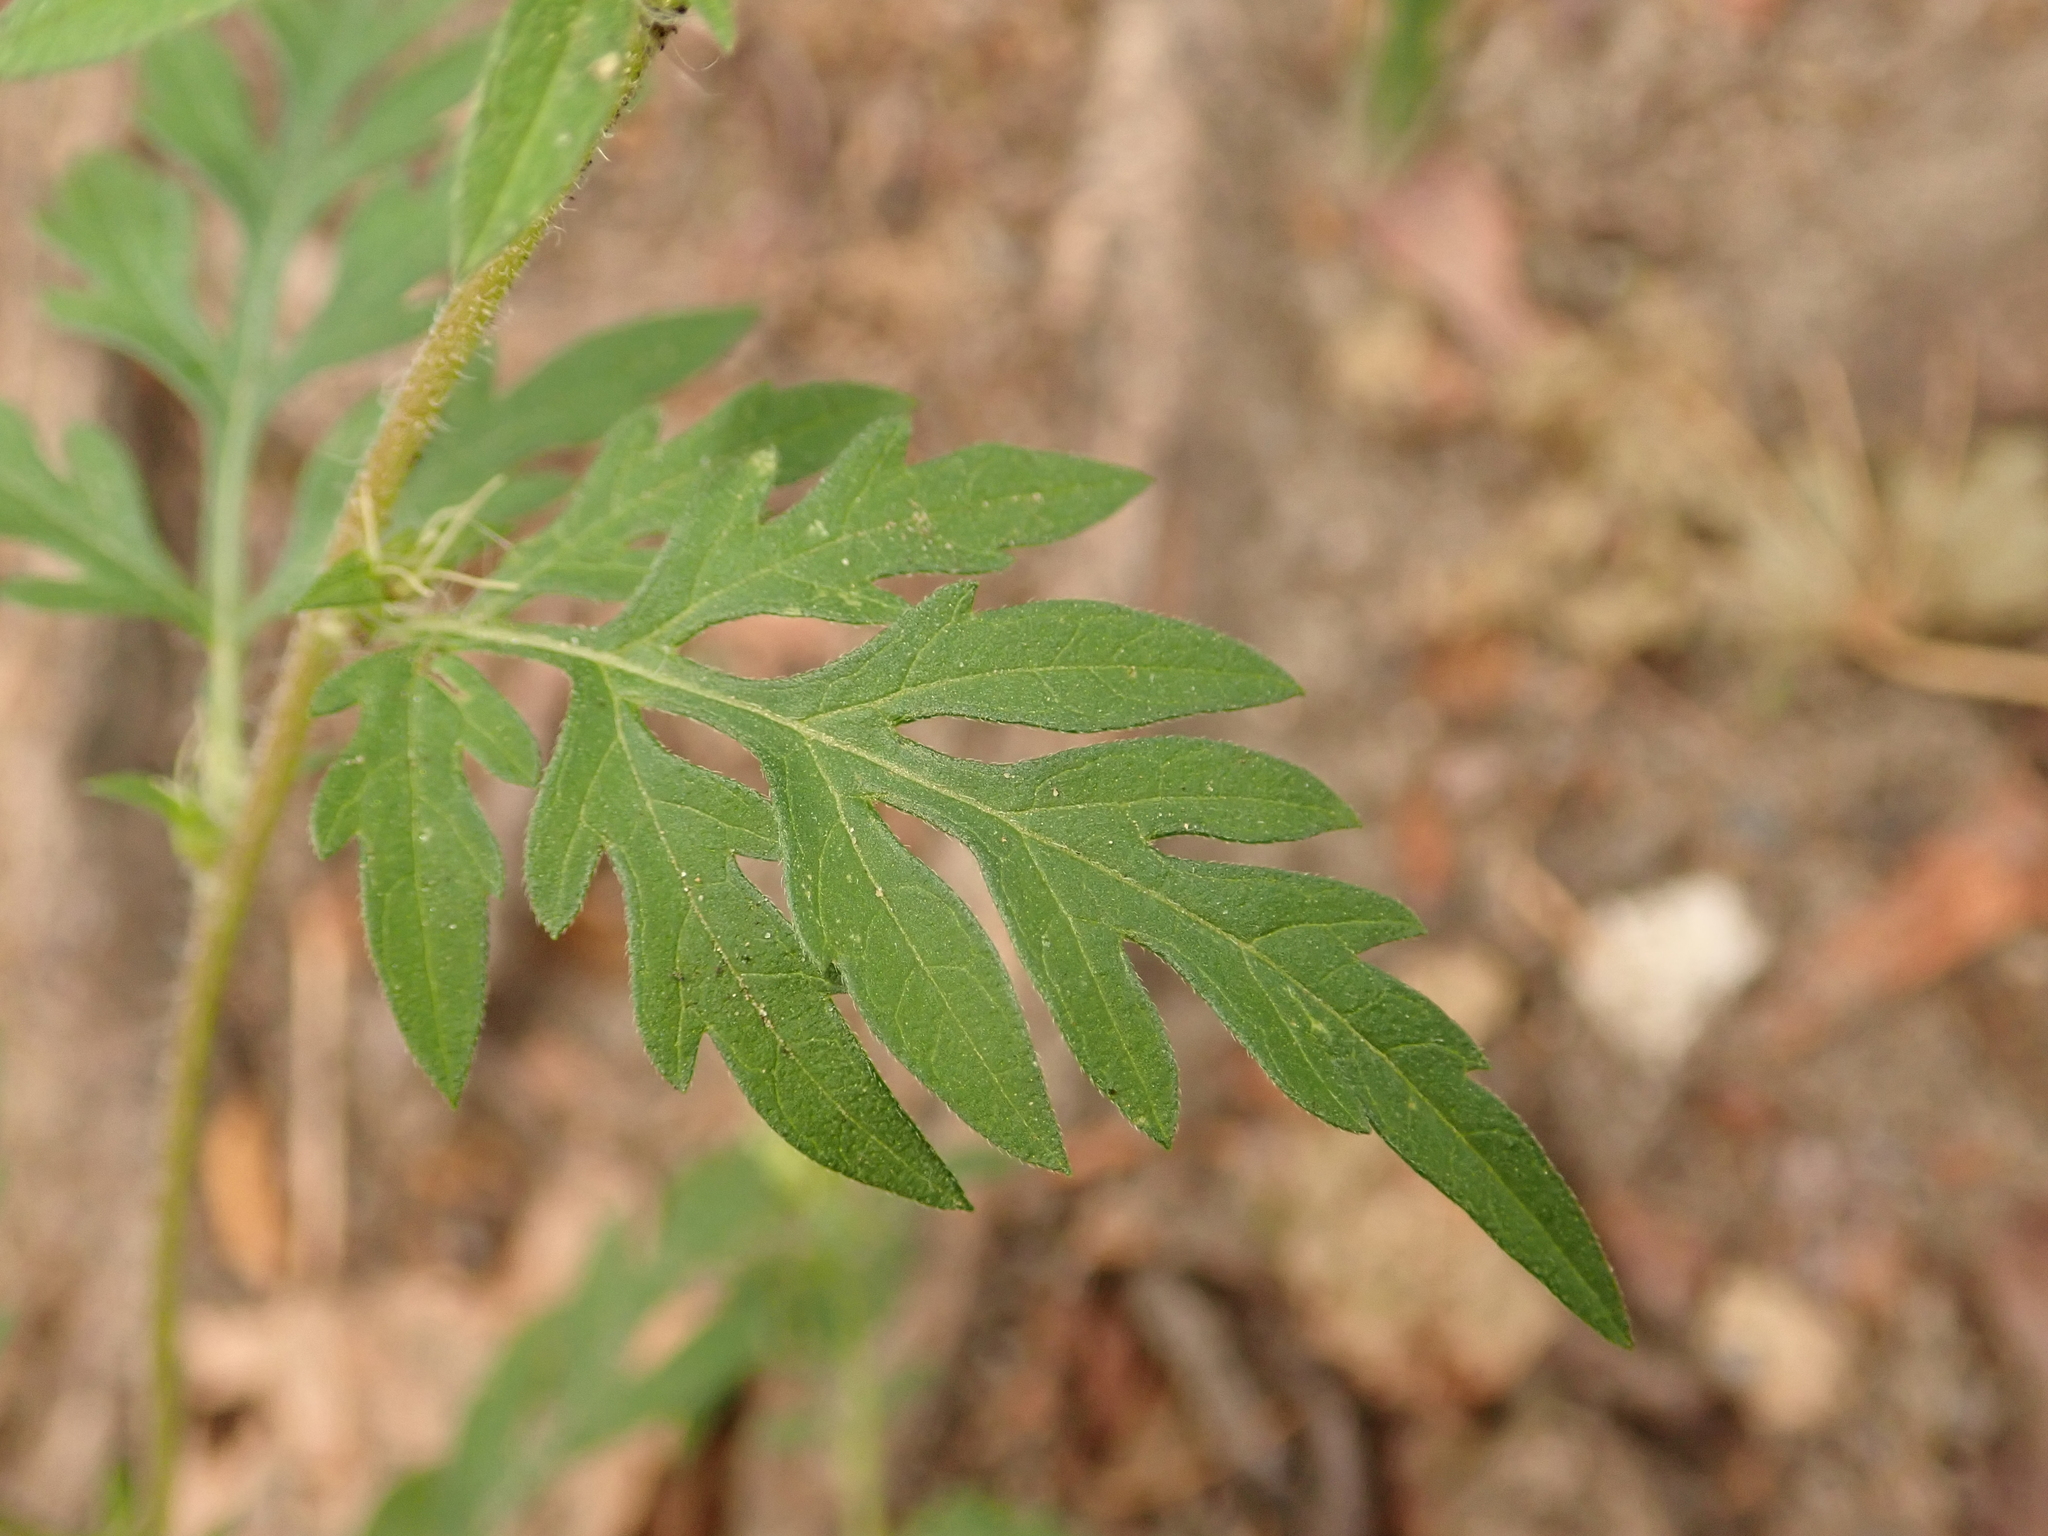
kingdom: Plantae
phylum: Tracheophyta
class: Magnoliopsida
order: Asterales
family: Asteraceae
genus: Ambrosia
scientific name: Ambrosia artemisiifolia
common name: Annual ragweed
